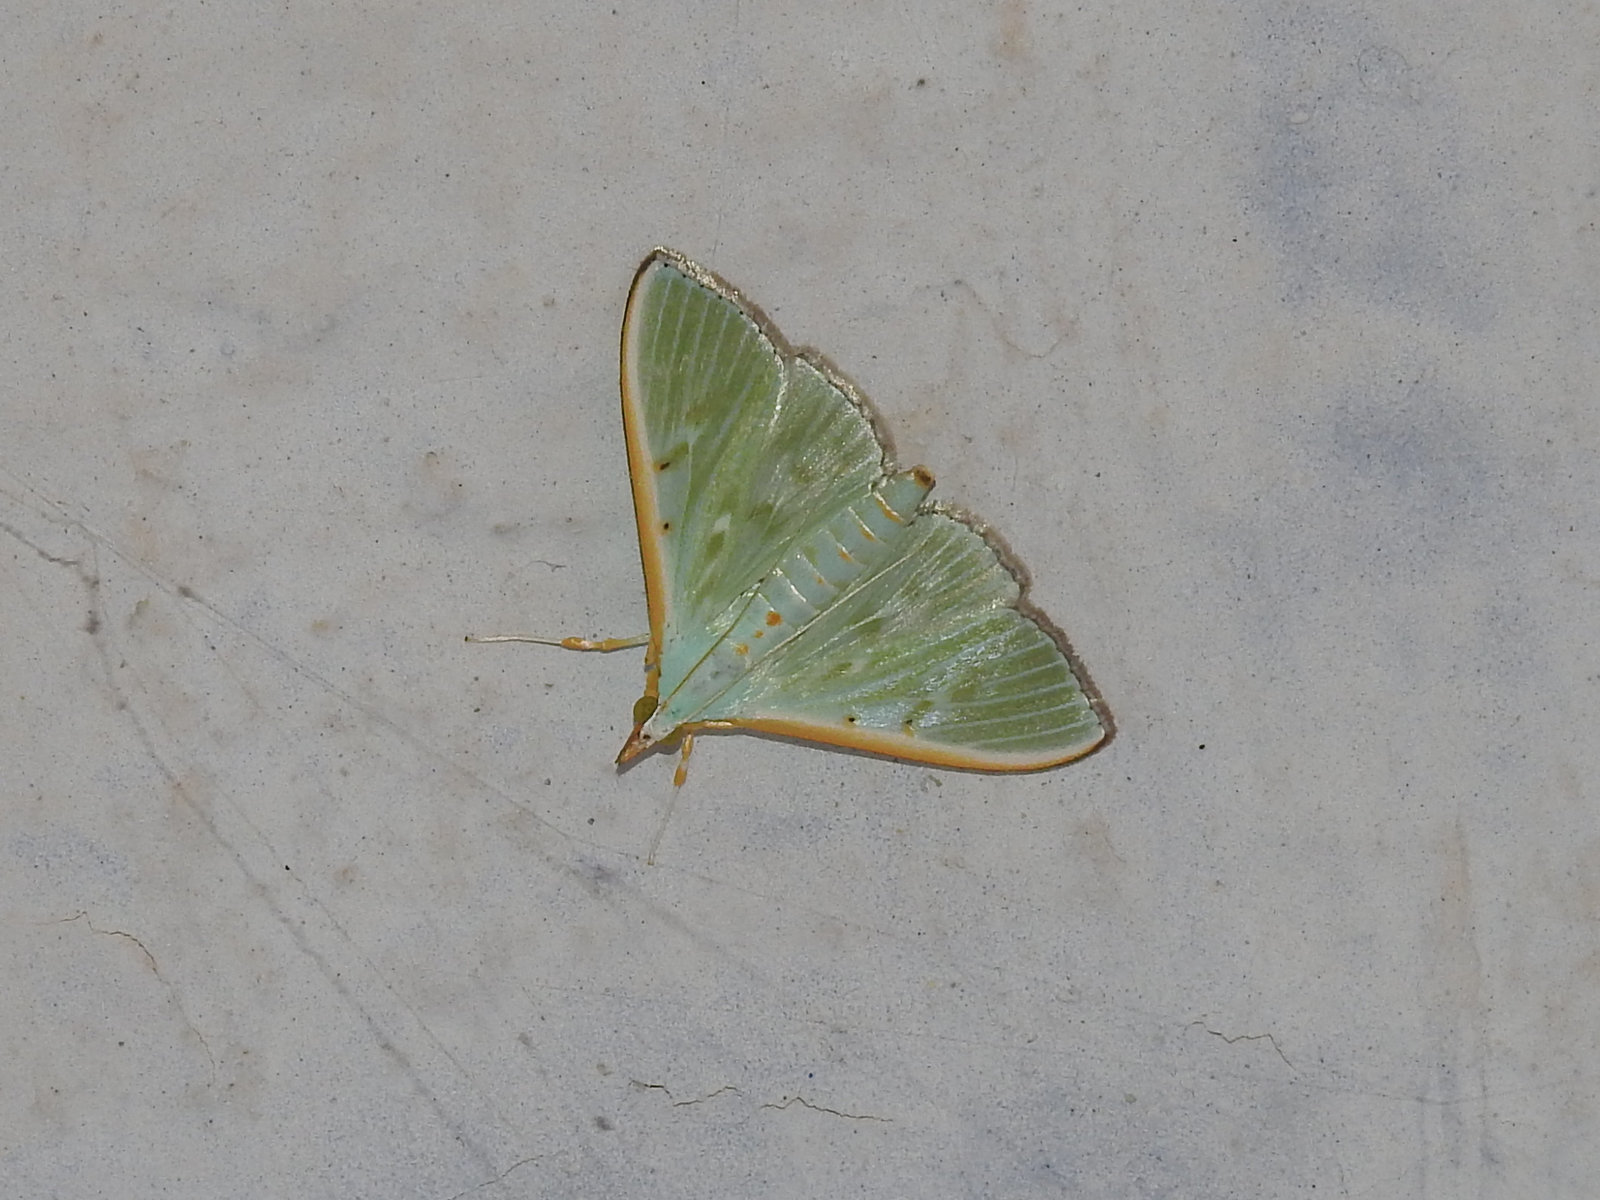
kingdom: Animalia
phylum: Arthropoda
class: Insecta
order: Lepidoptera
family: Crambidae
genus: Arthroschista
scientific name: Arthroschista hilaralis
